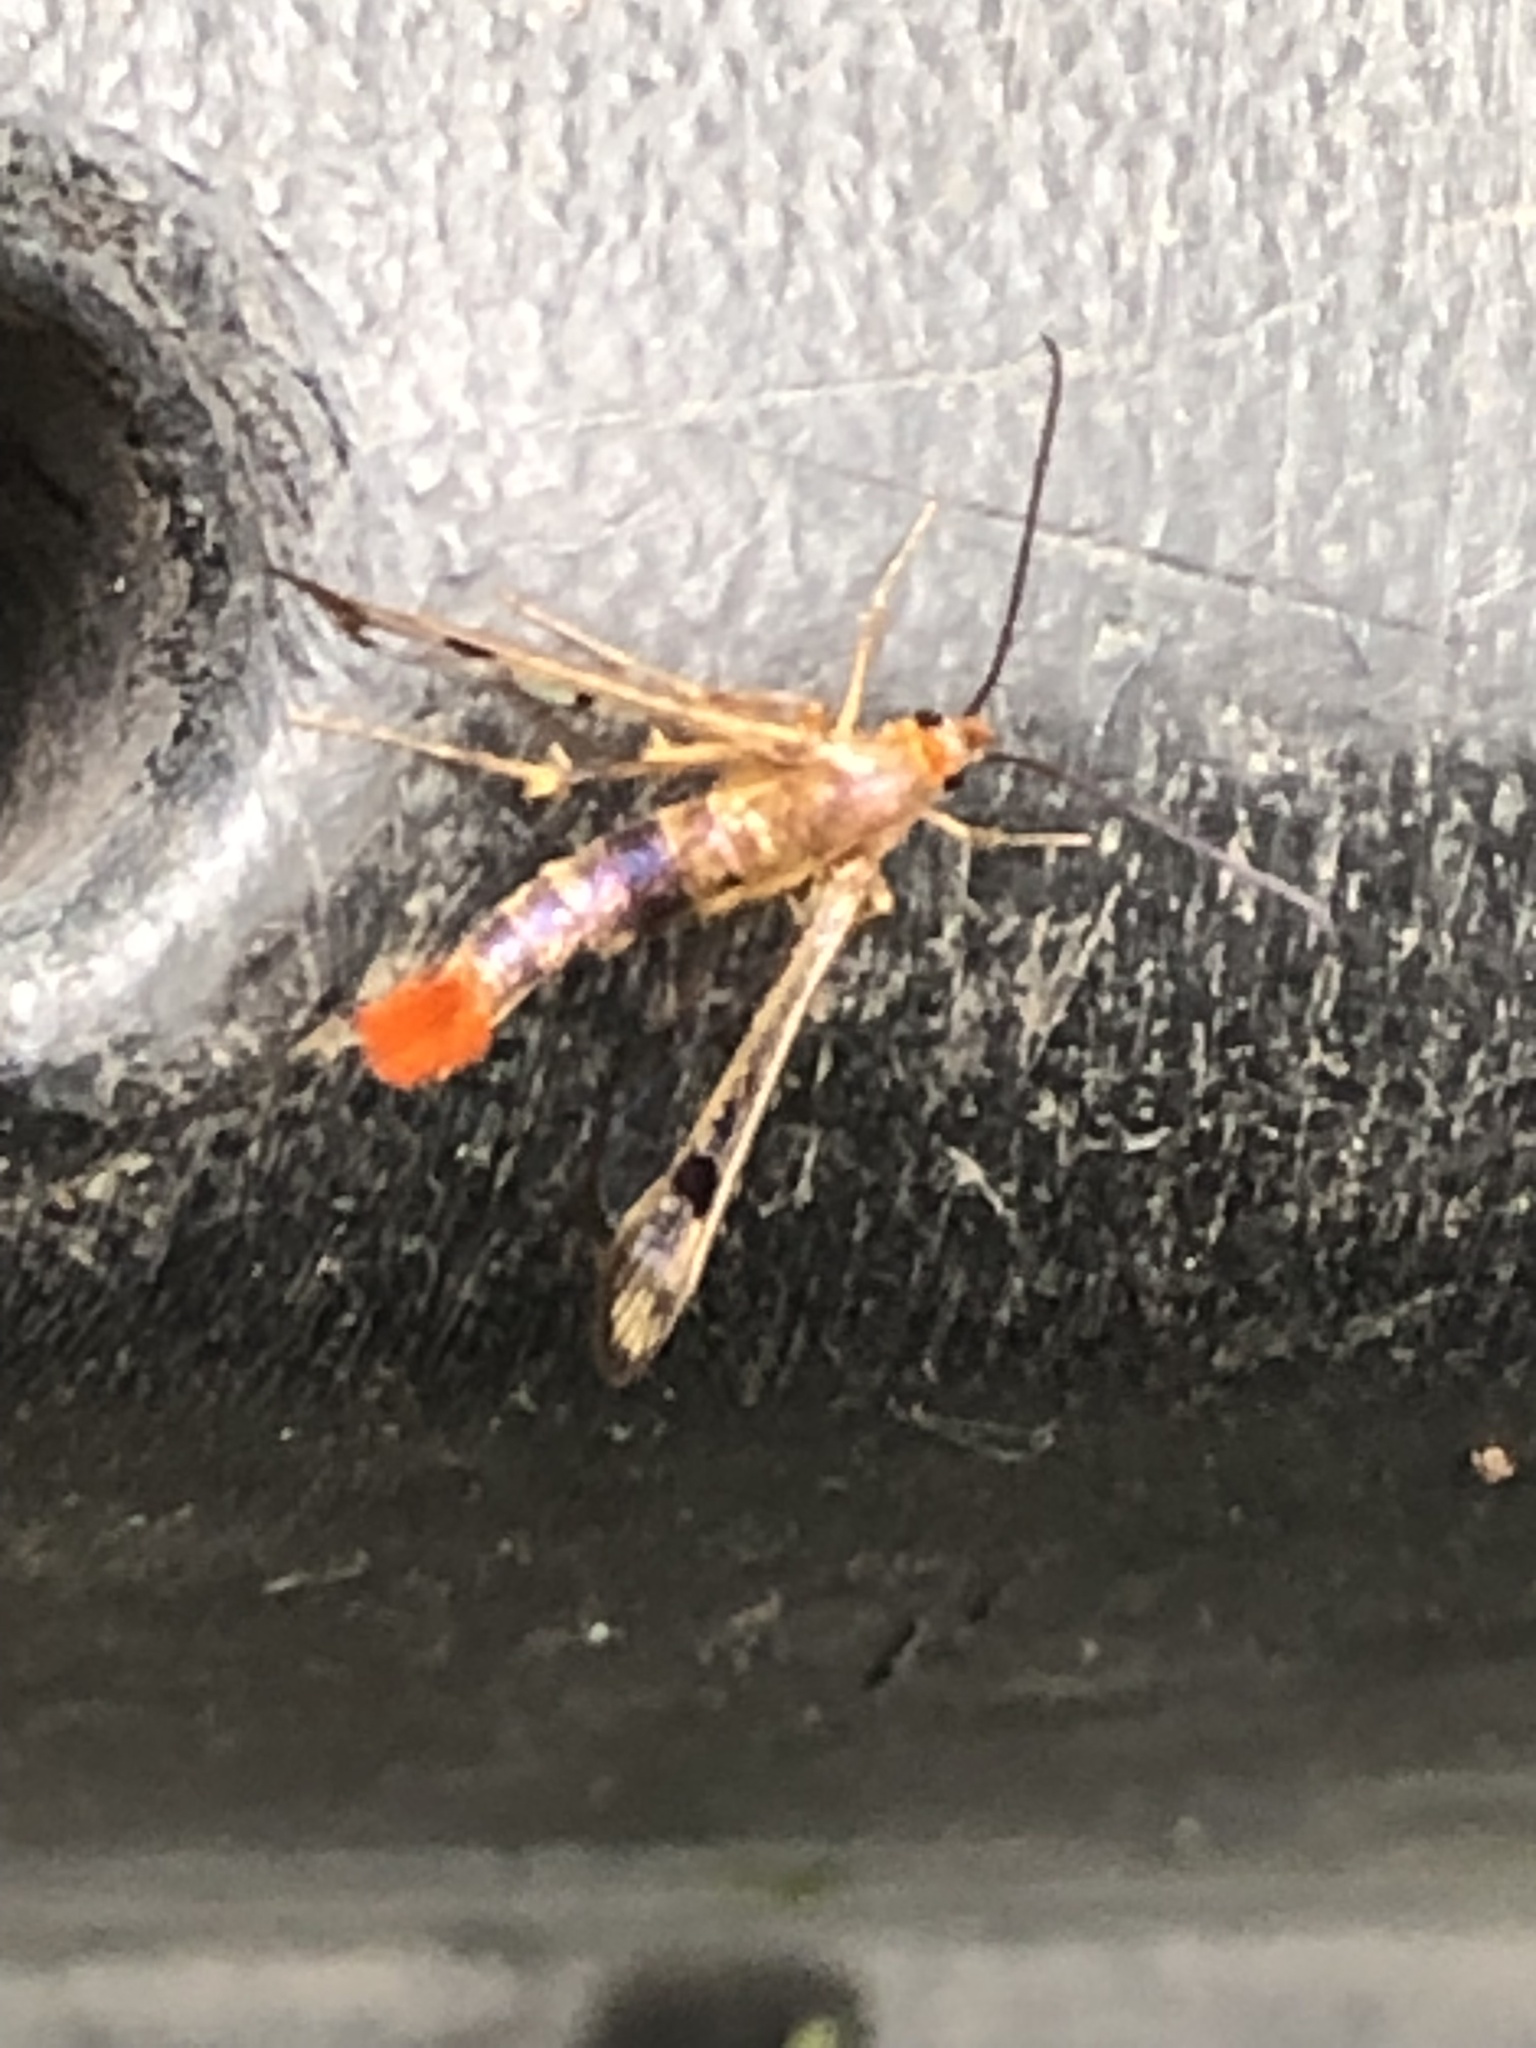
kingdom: Animalia
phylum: Arthropoda
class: Insecta
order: Lepidoptera
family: Sesiidae
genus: Synanthedon
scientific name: Synanthedon acerni
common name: Maple callus borer moth
